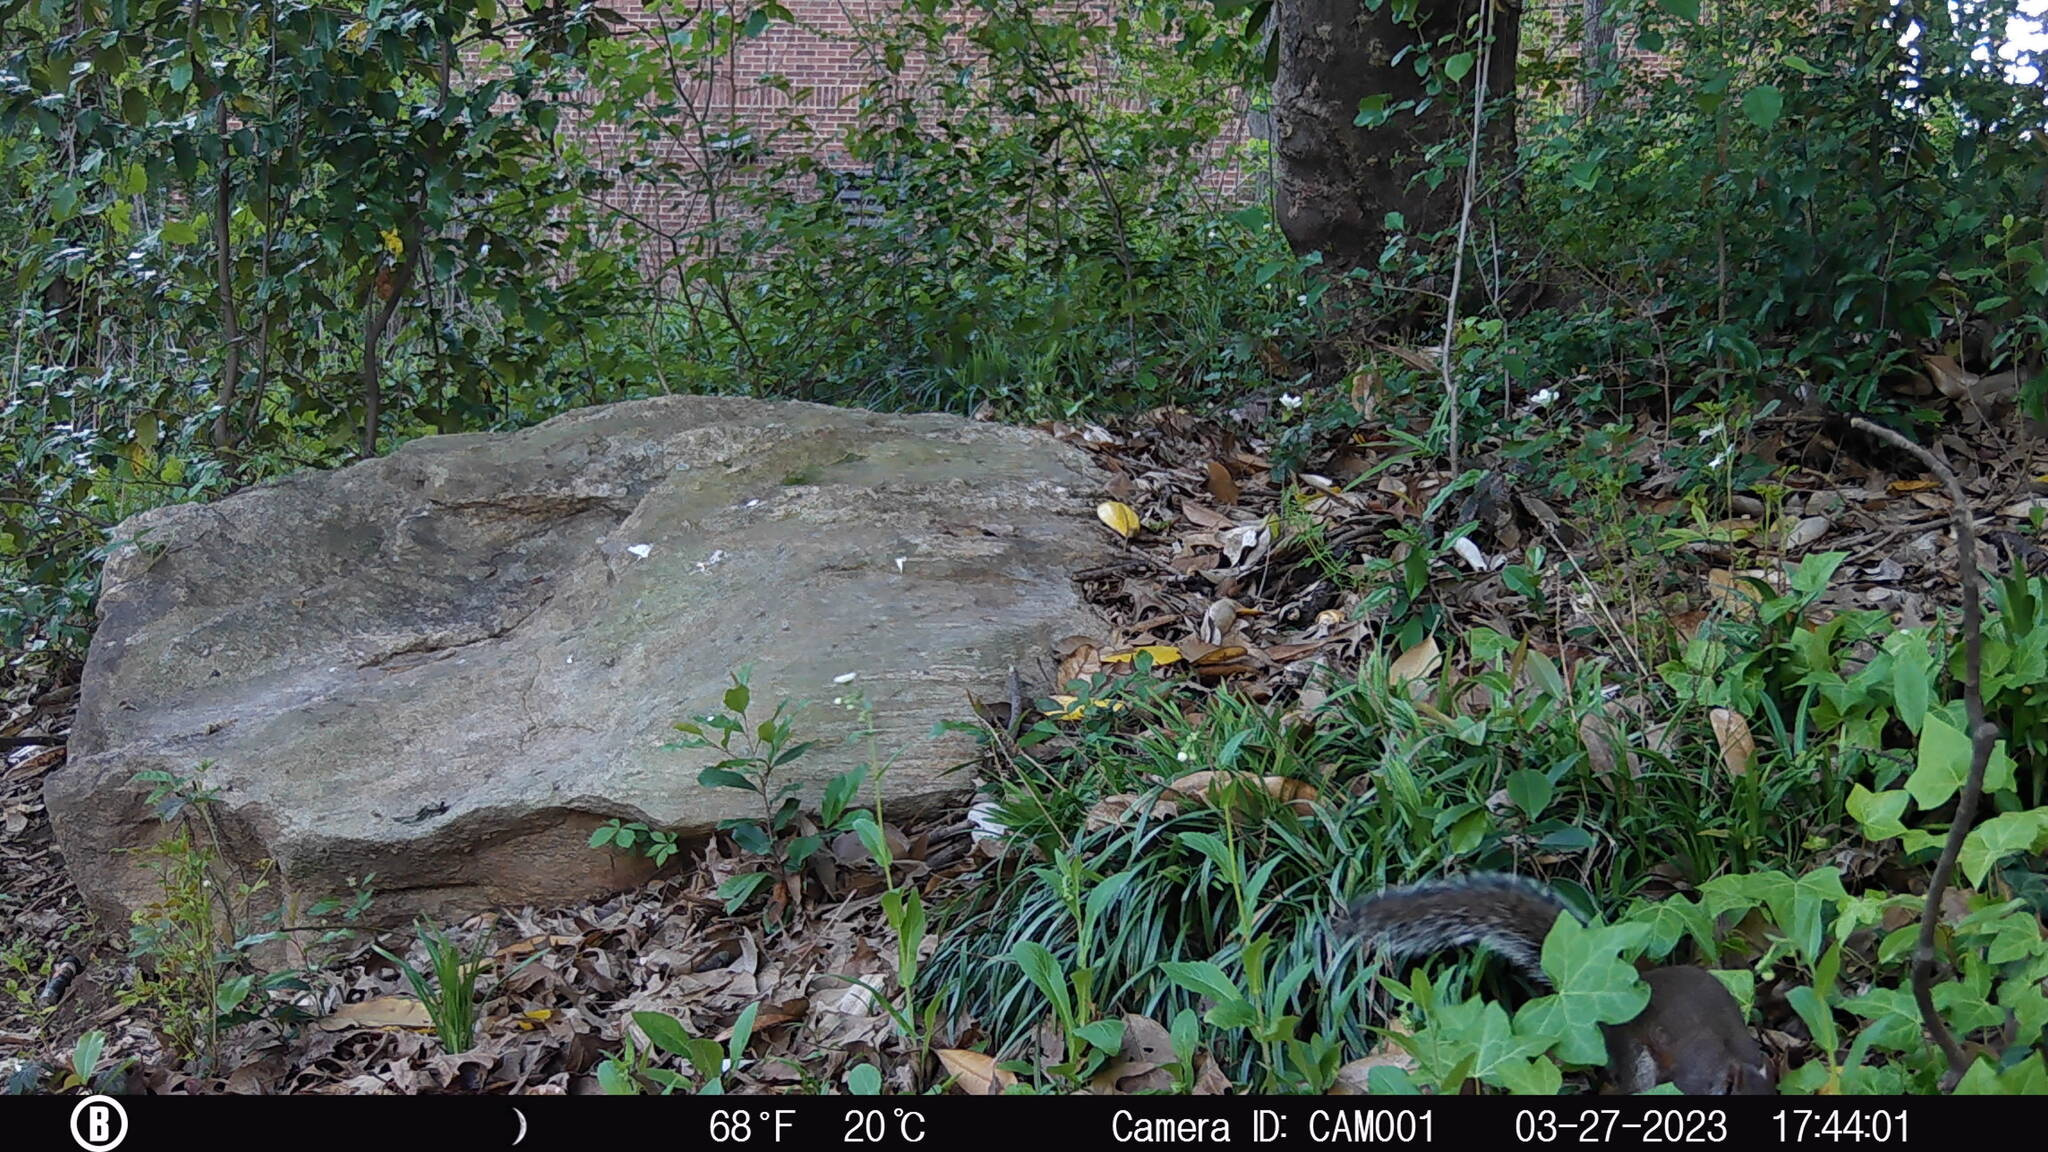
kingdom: Animalia
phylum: Chordata
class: Mammalia
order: Rodentia
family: Sciuridae
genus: Sciurus
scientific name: Sciurus carolinensis
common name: Eastern gray squirrel
